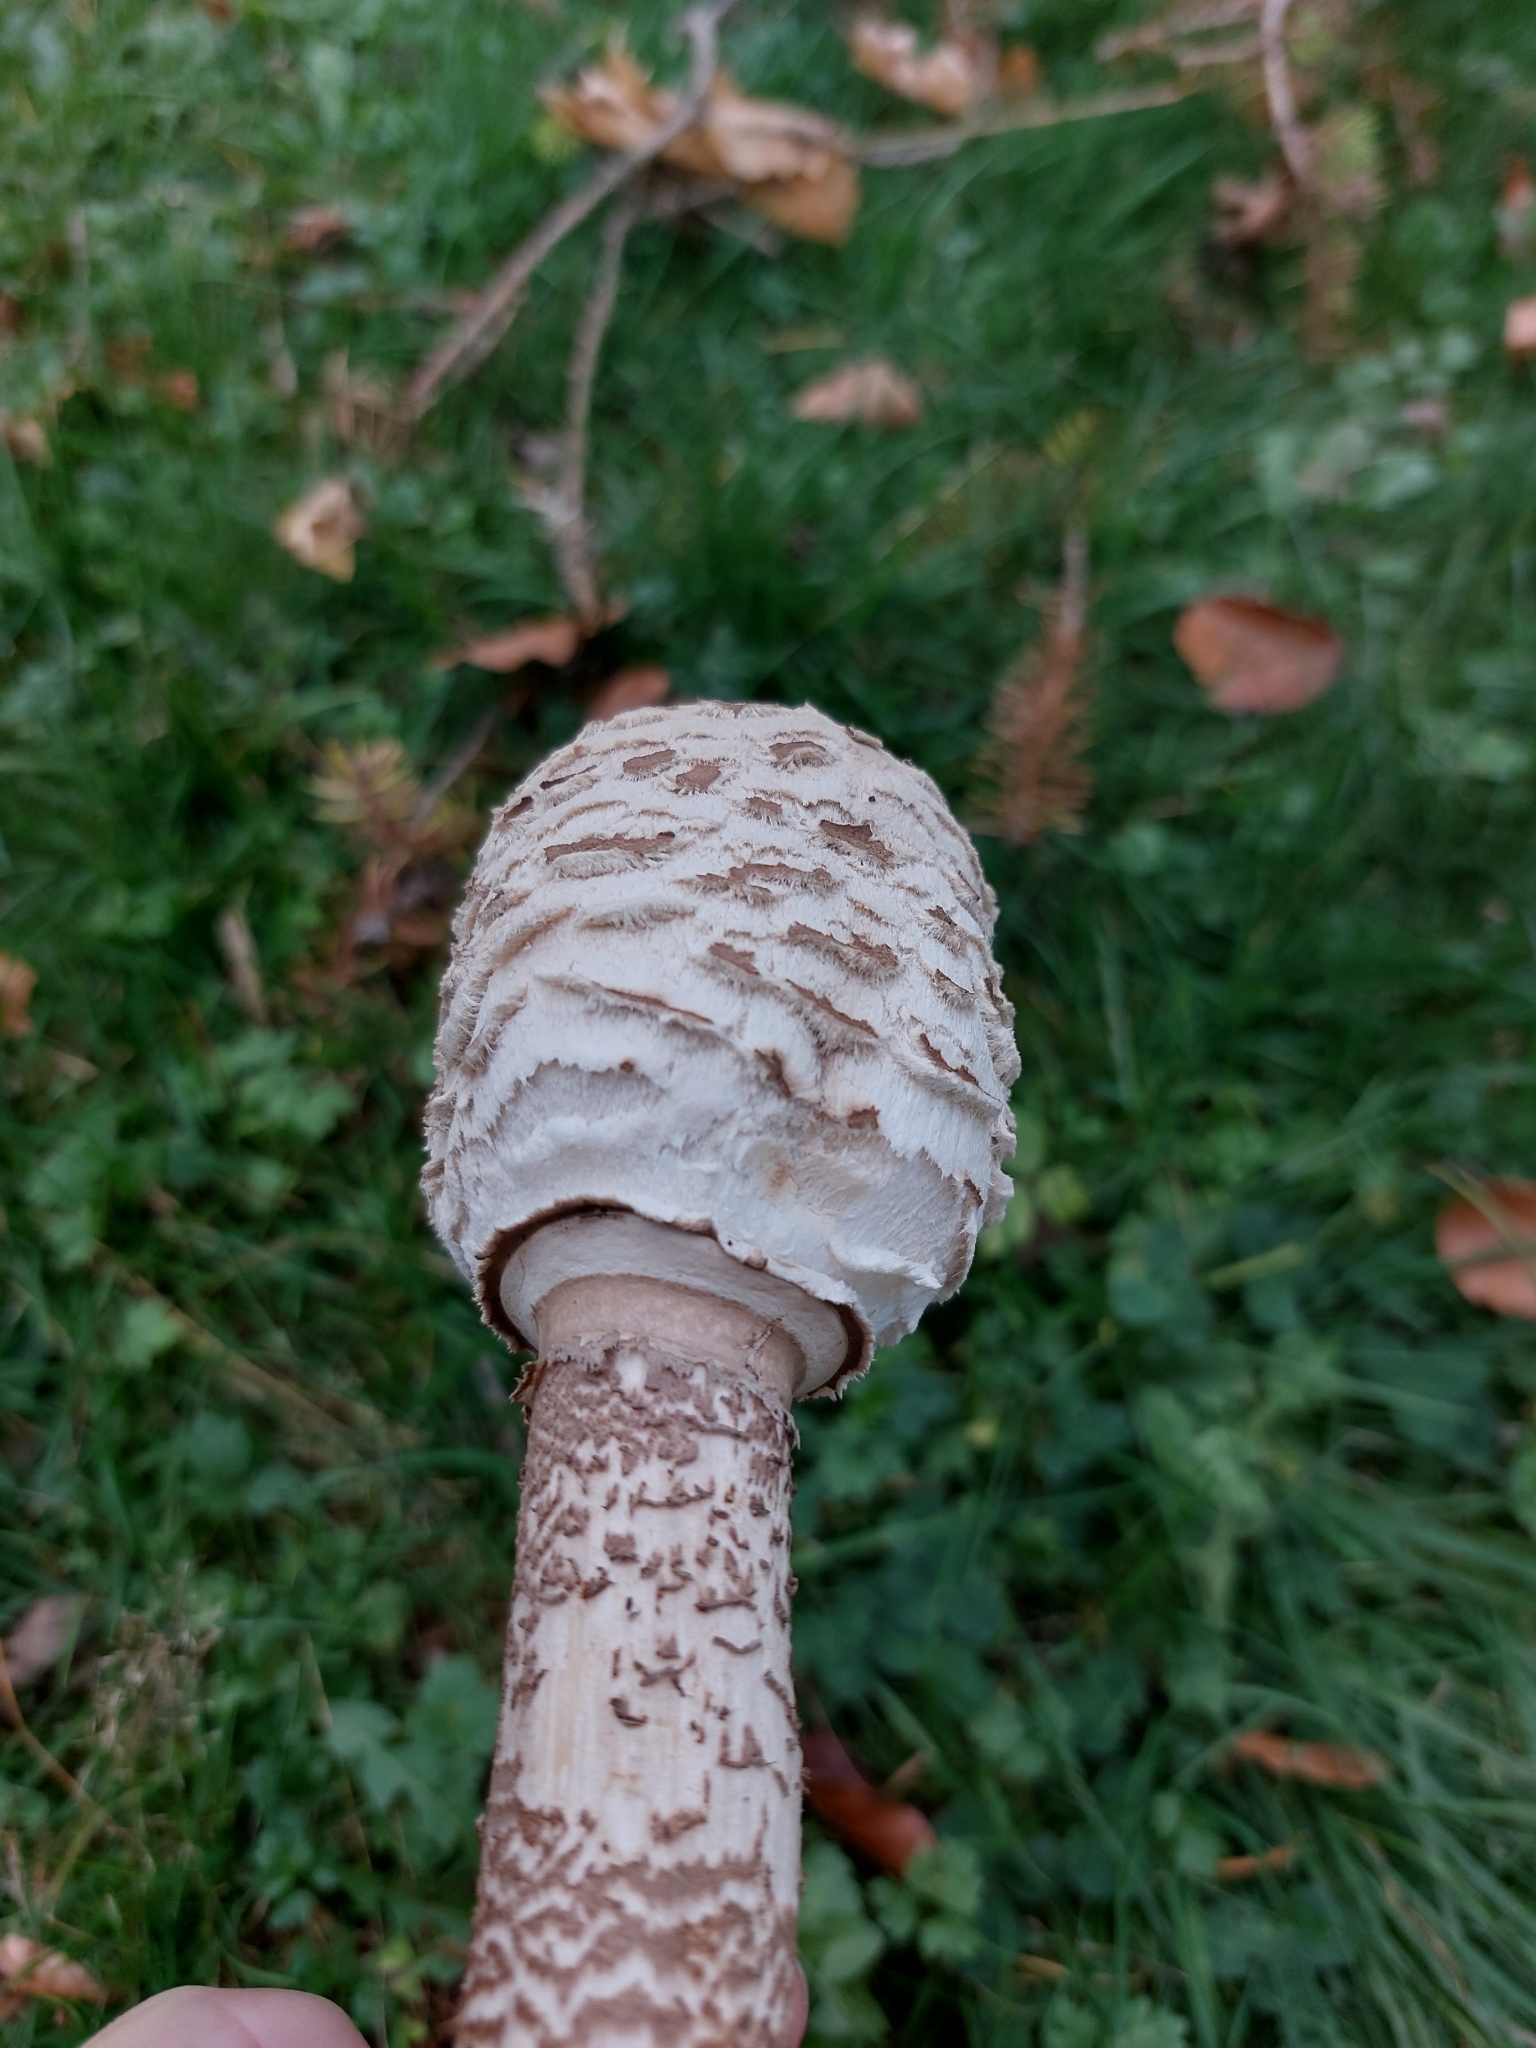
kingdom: Fungi
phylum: Basidiomycota
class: Agaricomycetes
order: Agaricales
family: Agaricaceae
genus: Macrolepiota
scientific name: Macrolepiota procera
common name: Parasol
